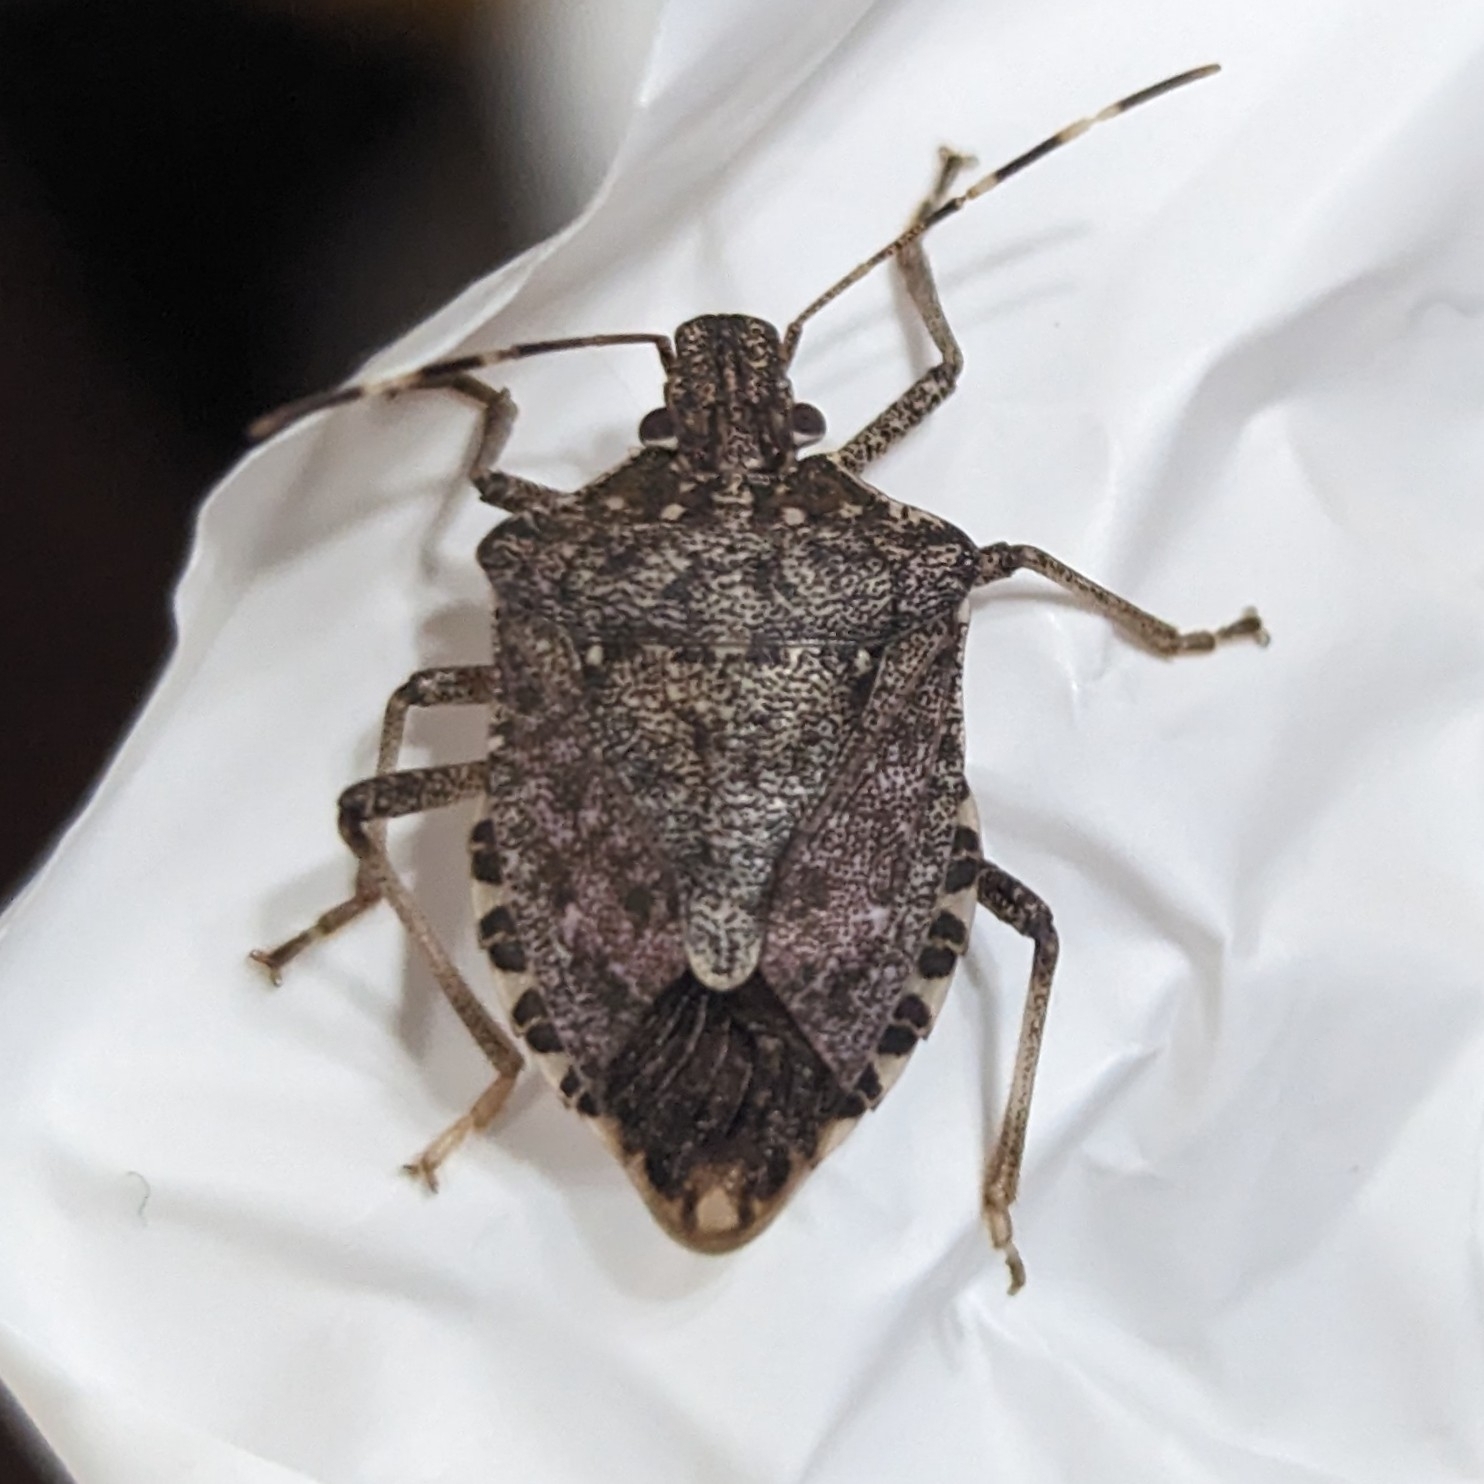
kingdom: Animalia
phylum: Arthropoda
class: Insecta
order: Hemiptera
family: Pentatomidae
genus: Halyomorpha
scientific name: Halyomorpha halys
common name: Brown marmorated stink bug
